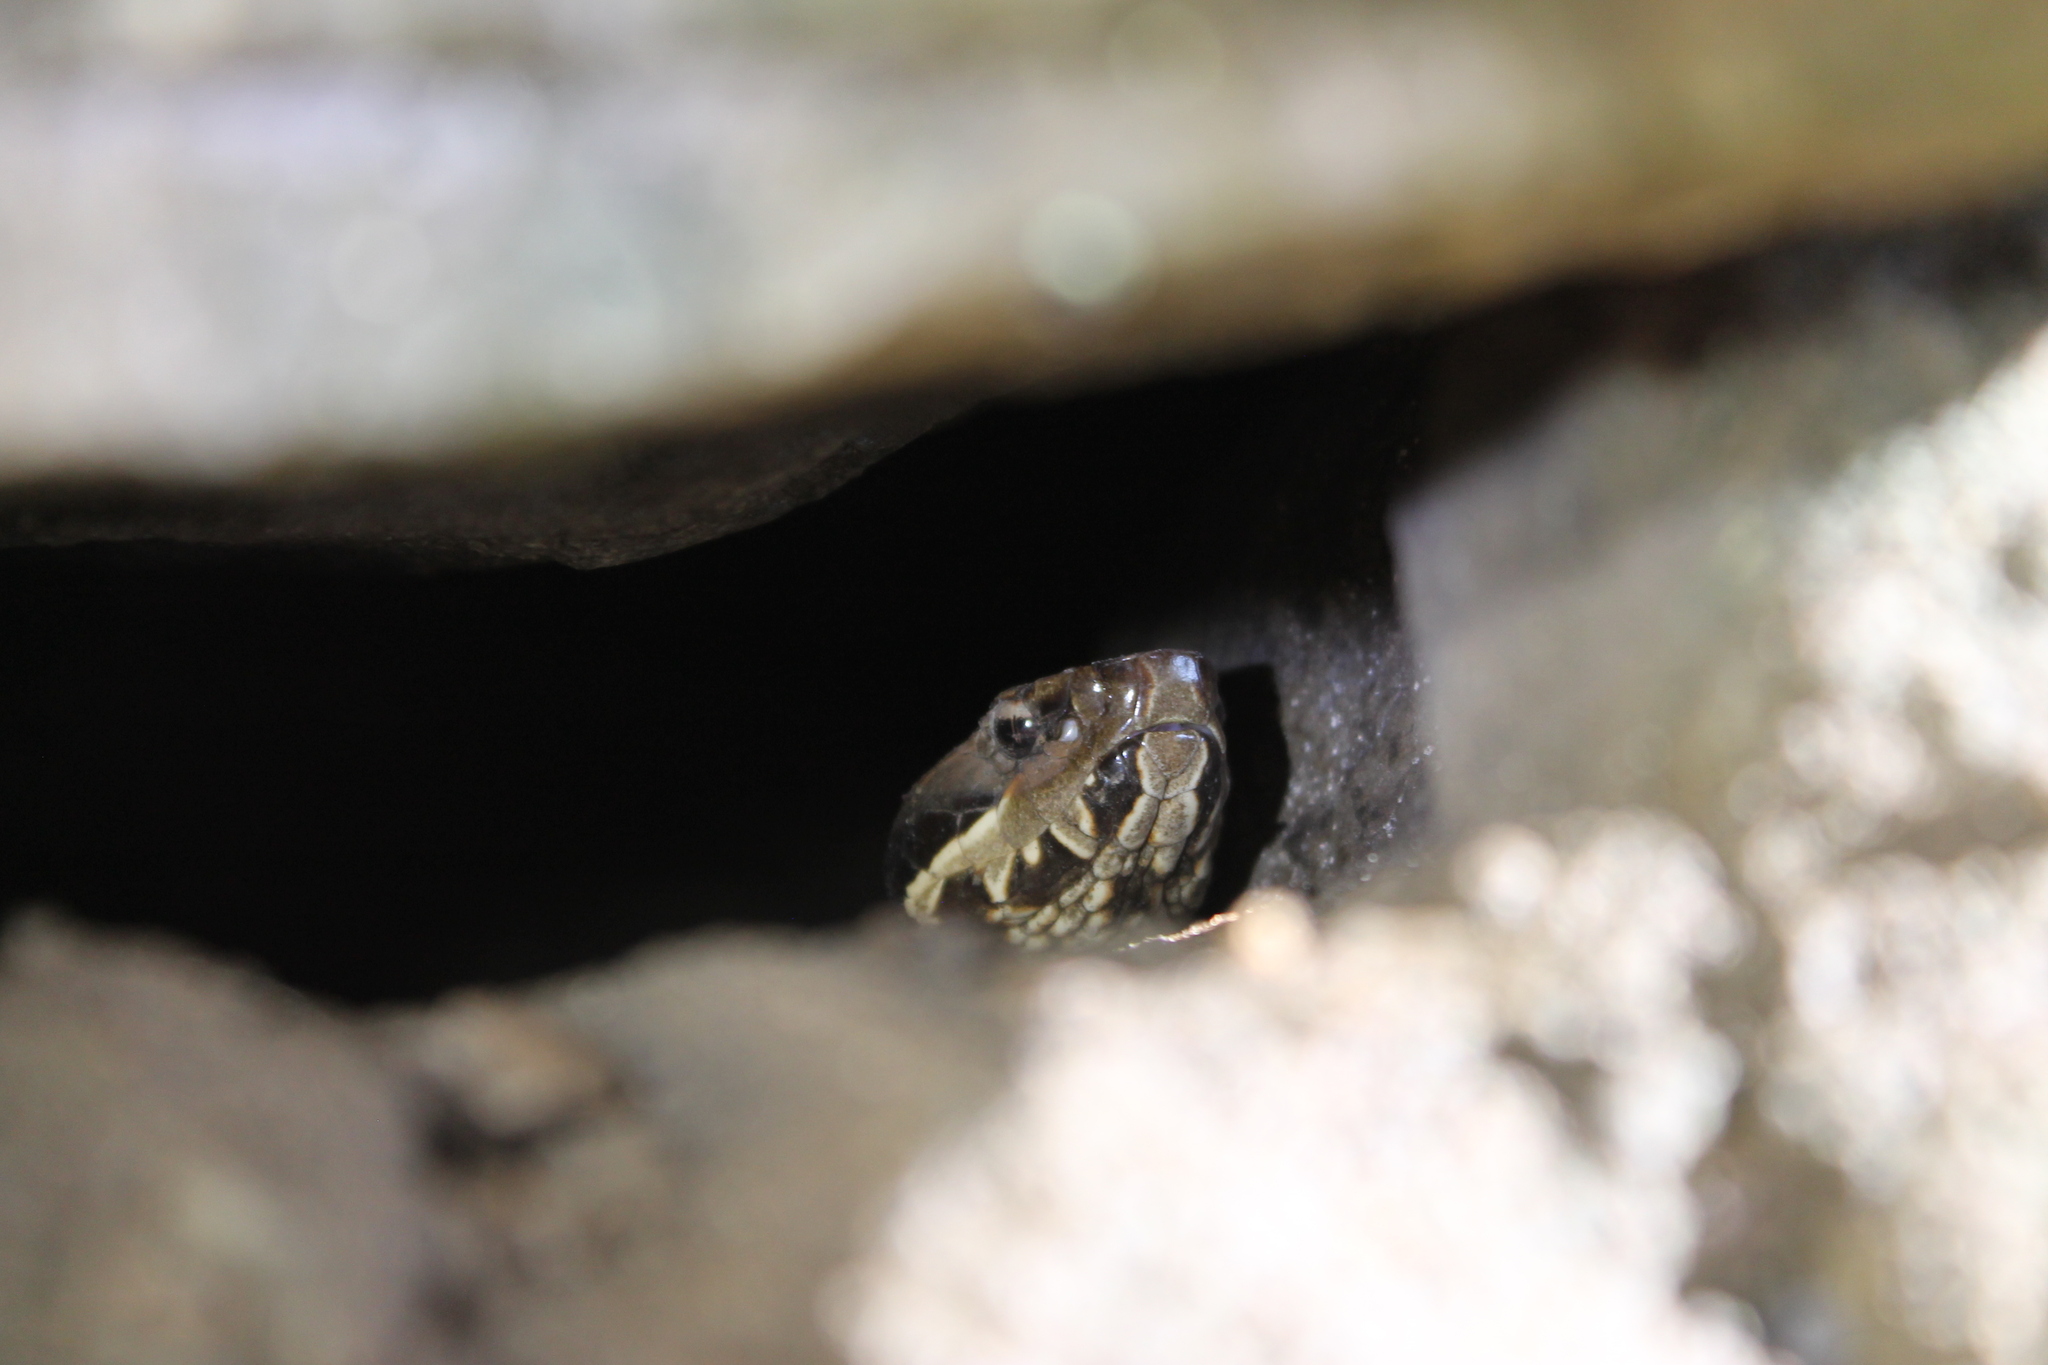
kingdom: Animalia
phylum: Chordata
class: Squamata
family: Viperidae
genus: Agkistrodon
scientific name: Agkistrodon piscivorus
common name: Cottonmouth
